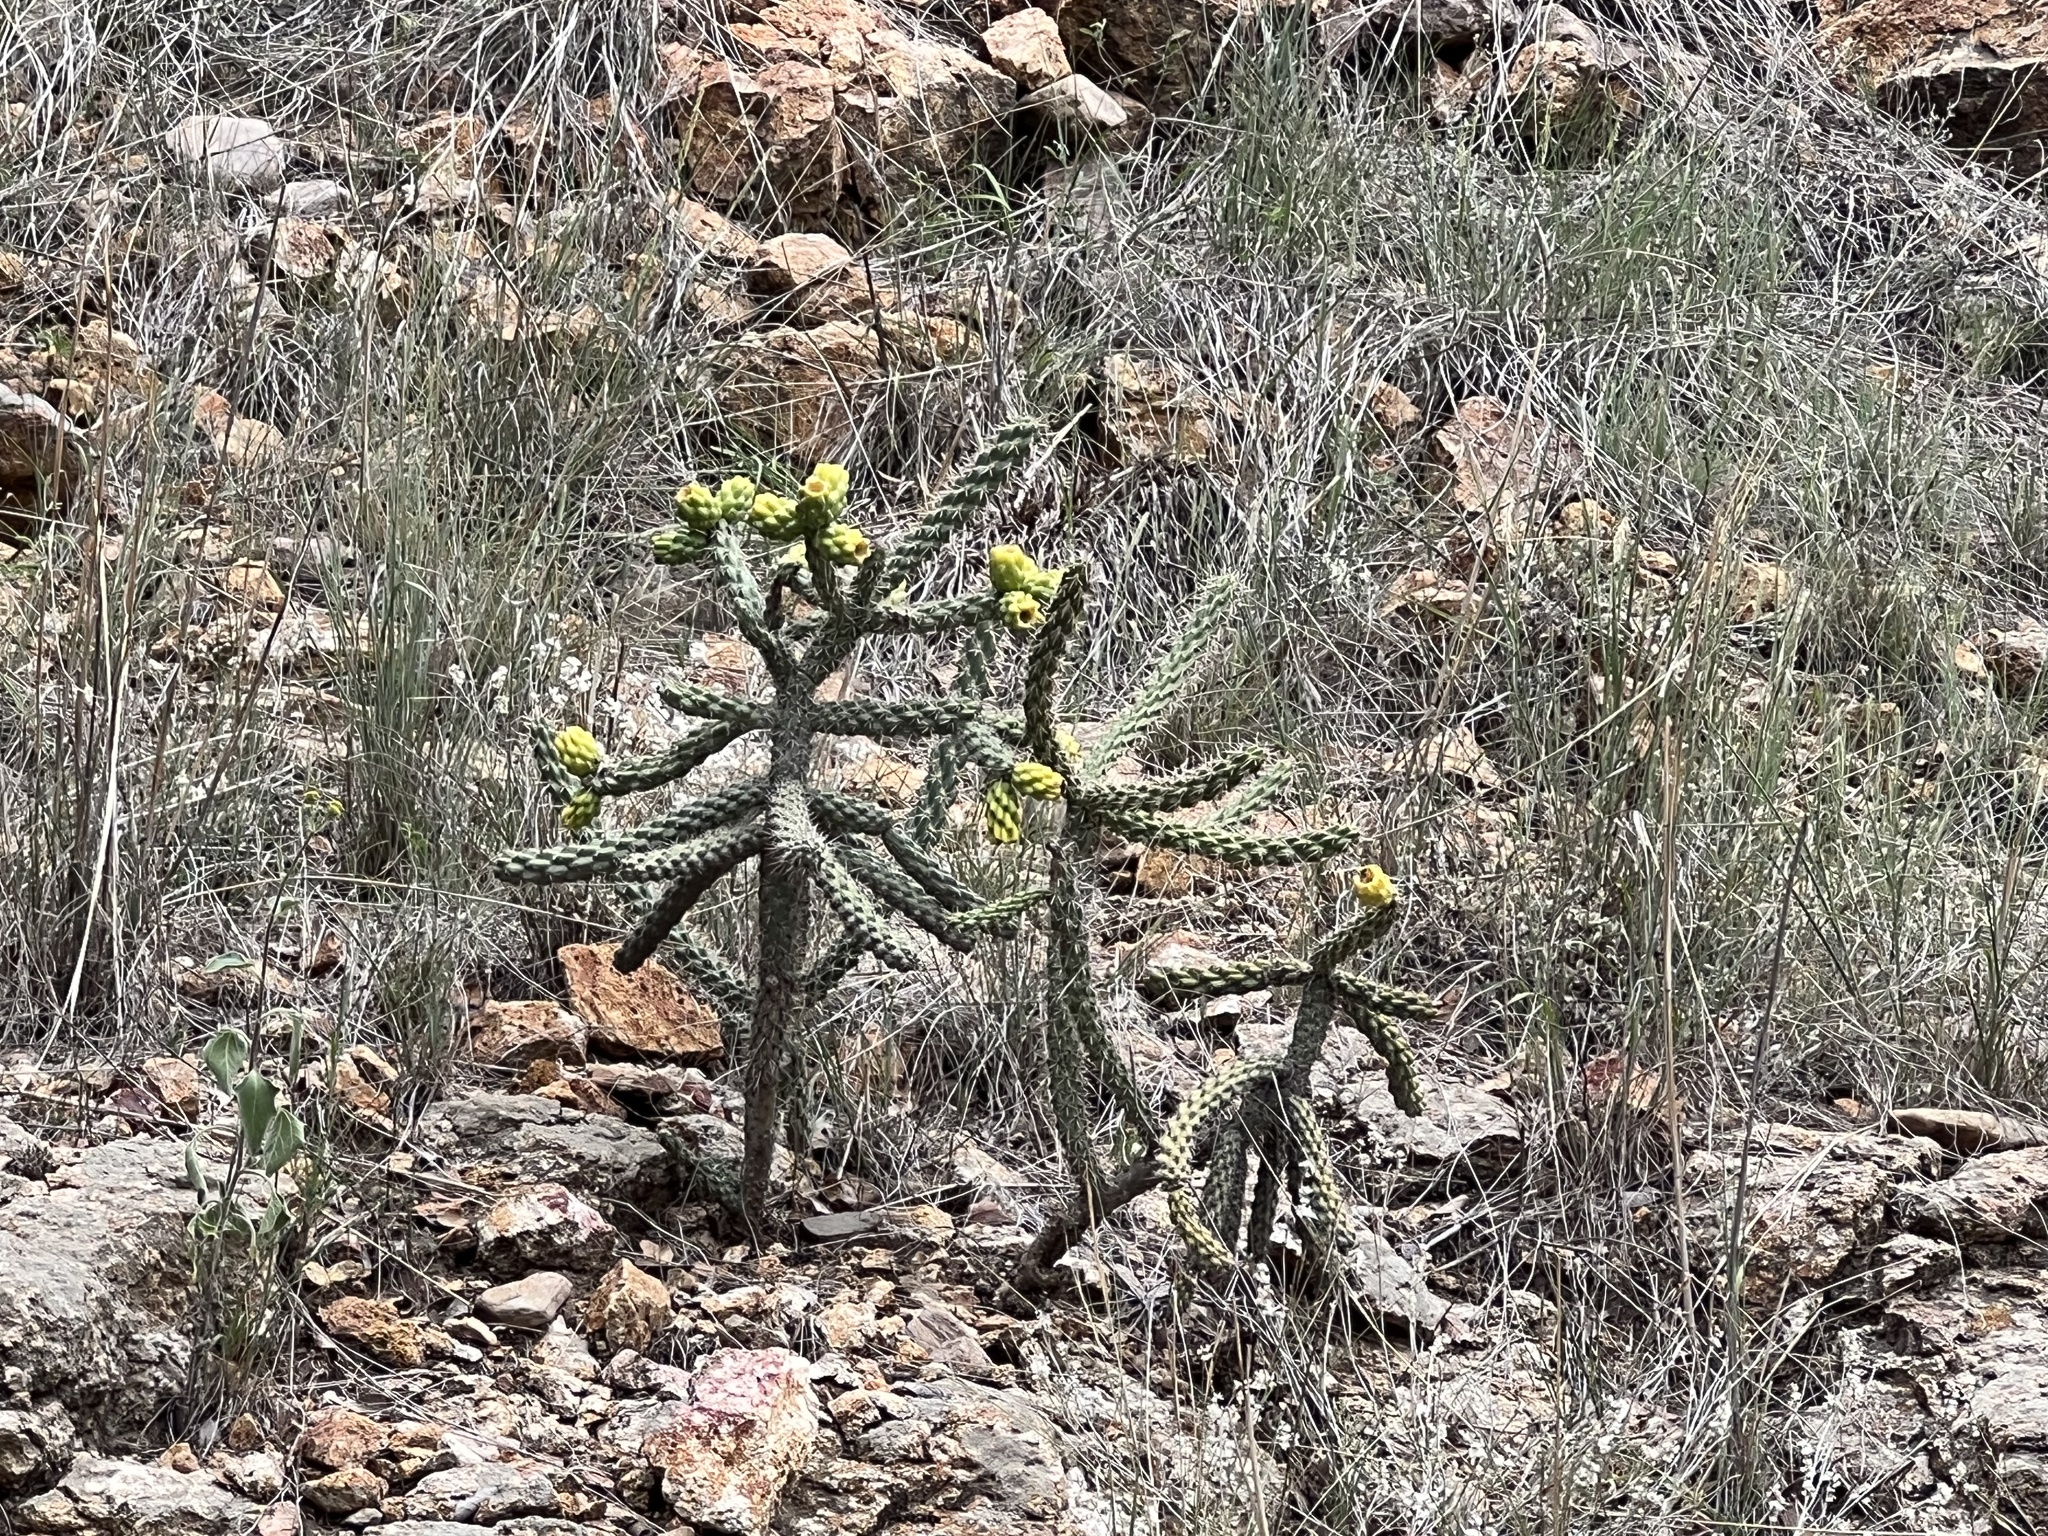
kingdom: Plantae
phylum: Tracheophyta
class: Magnoliopsida
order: Caryophyllales
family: Cactaceae
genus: Cylindropuntia
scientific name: Cylindropuntia imbricata
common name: Candelabrum cactus
